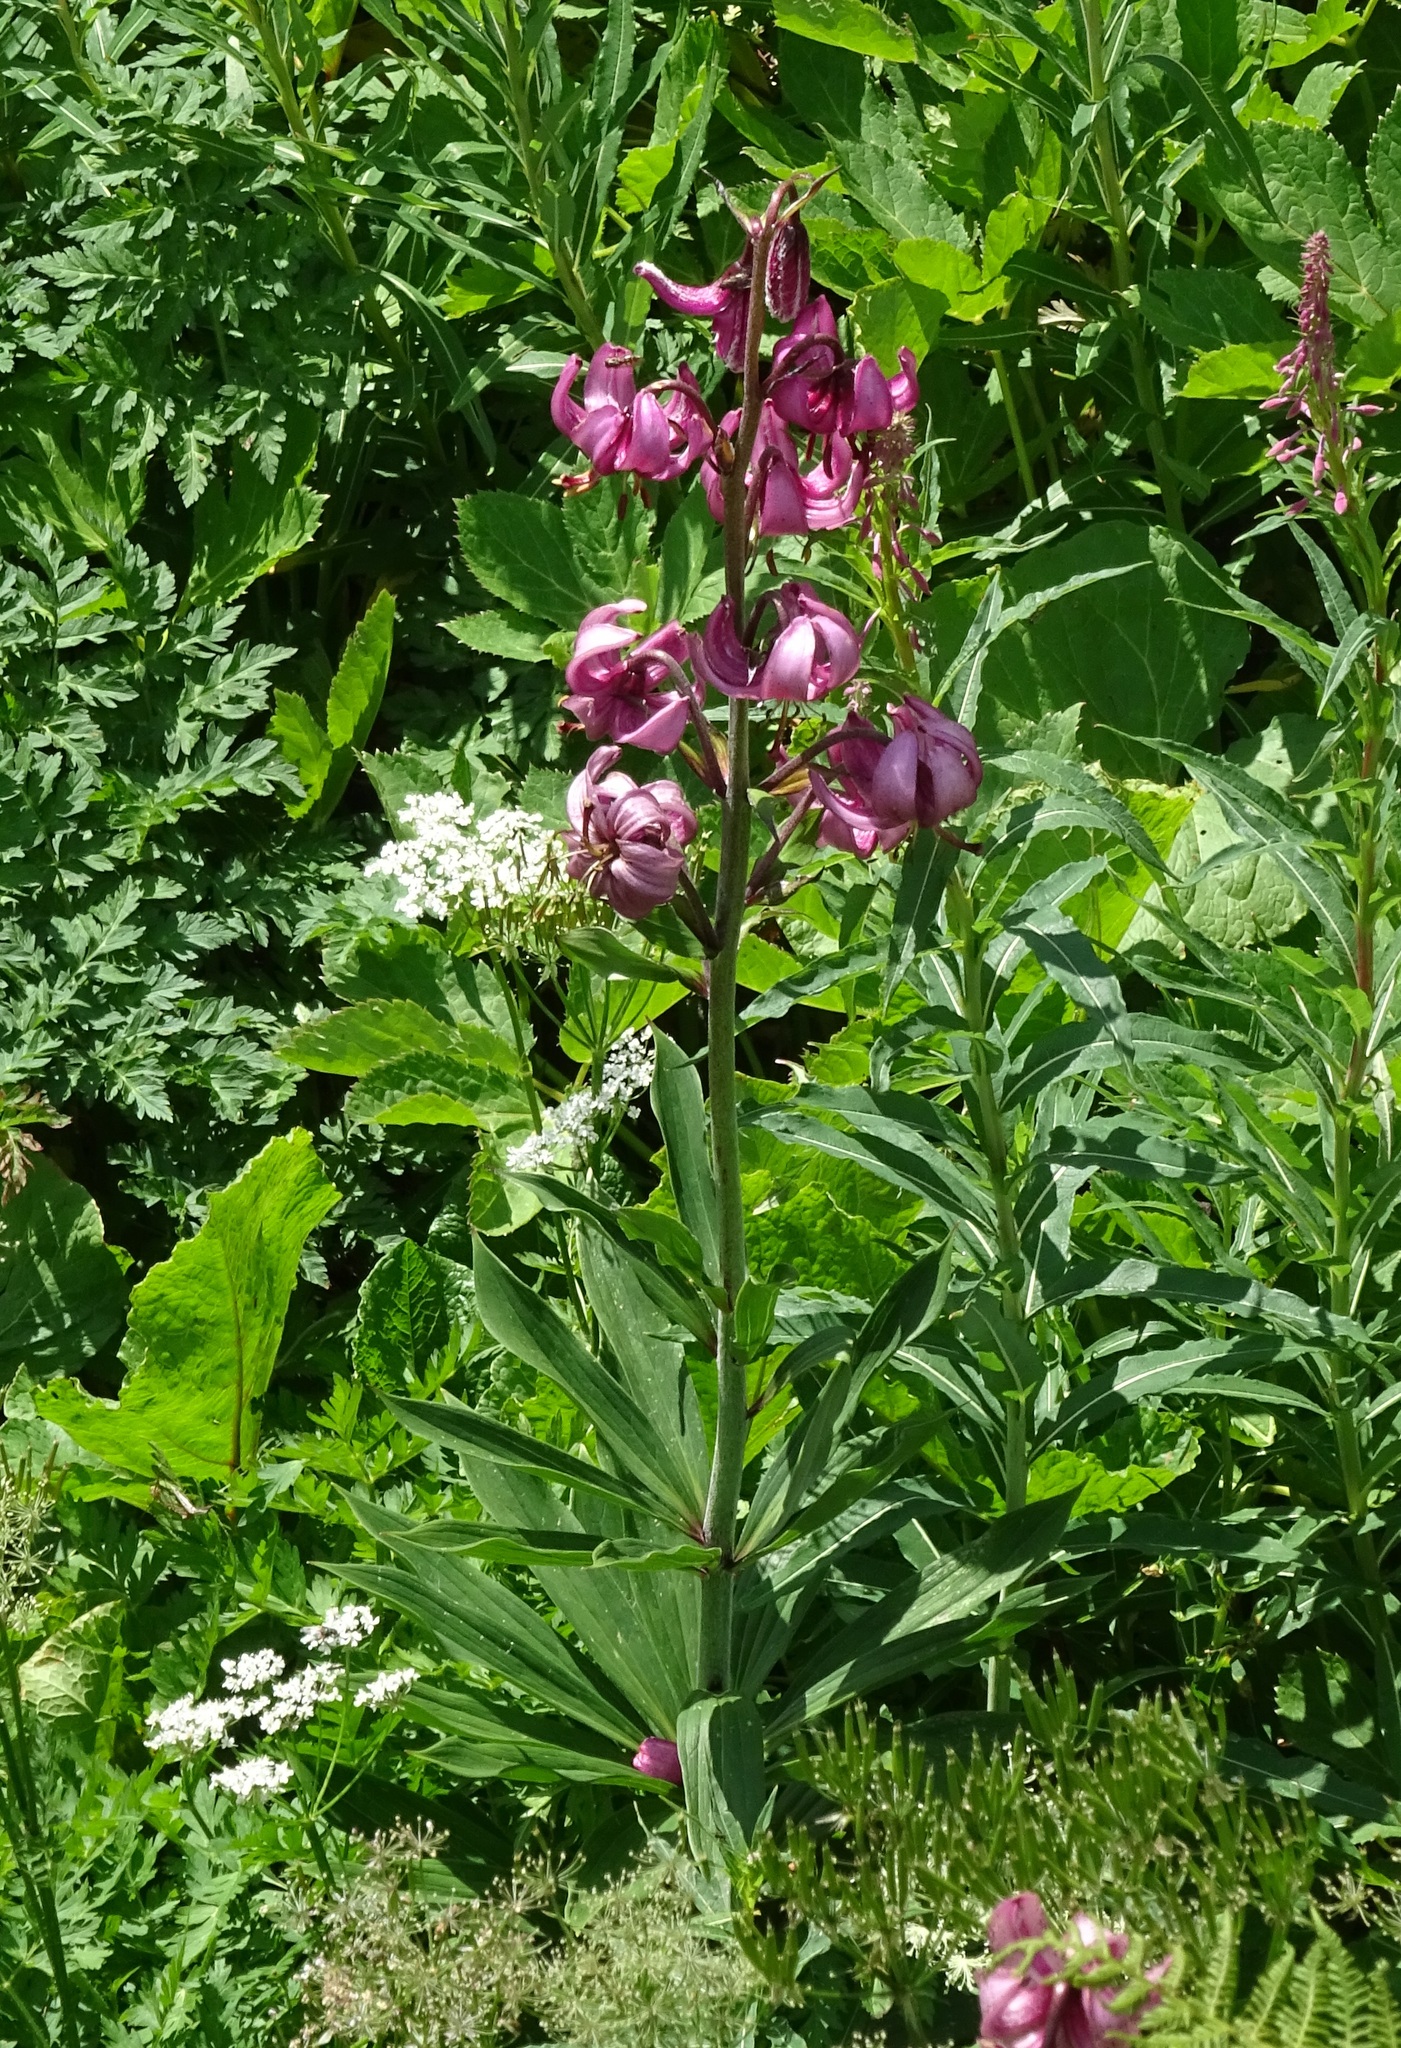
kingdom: Plantae
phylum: Tracheophyta
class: Liliopsida
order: Liliales
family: Liliaceae
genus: Lilium
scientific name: Lilium martagon
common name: Martagon lily
